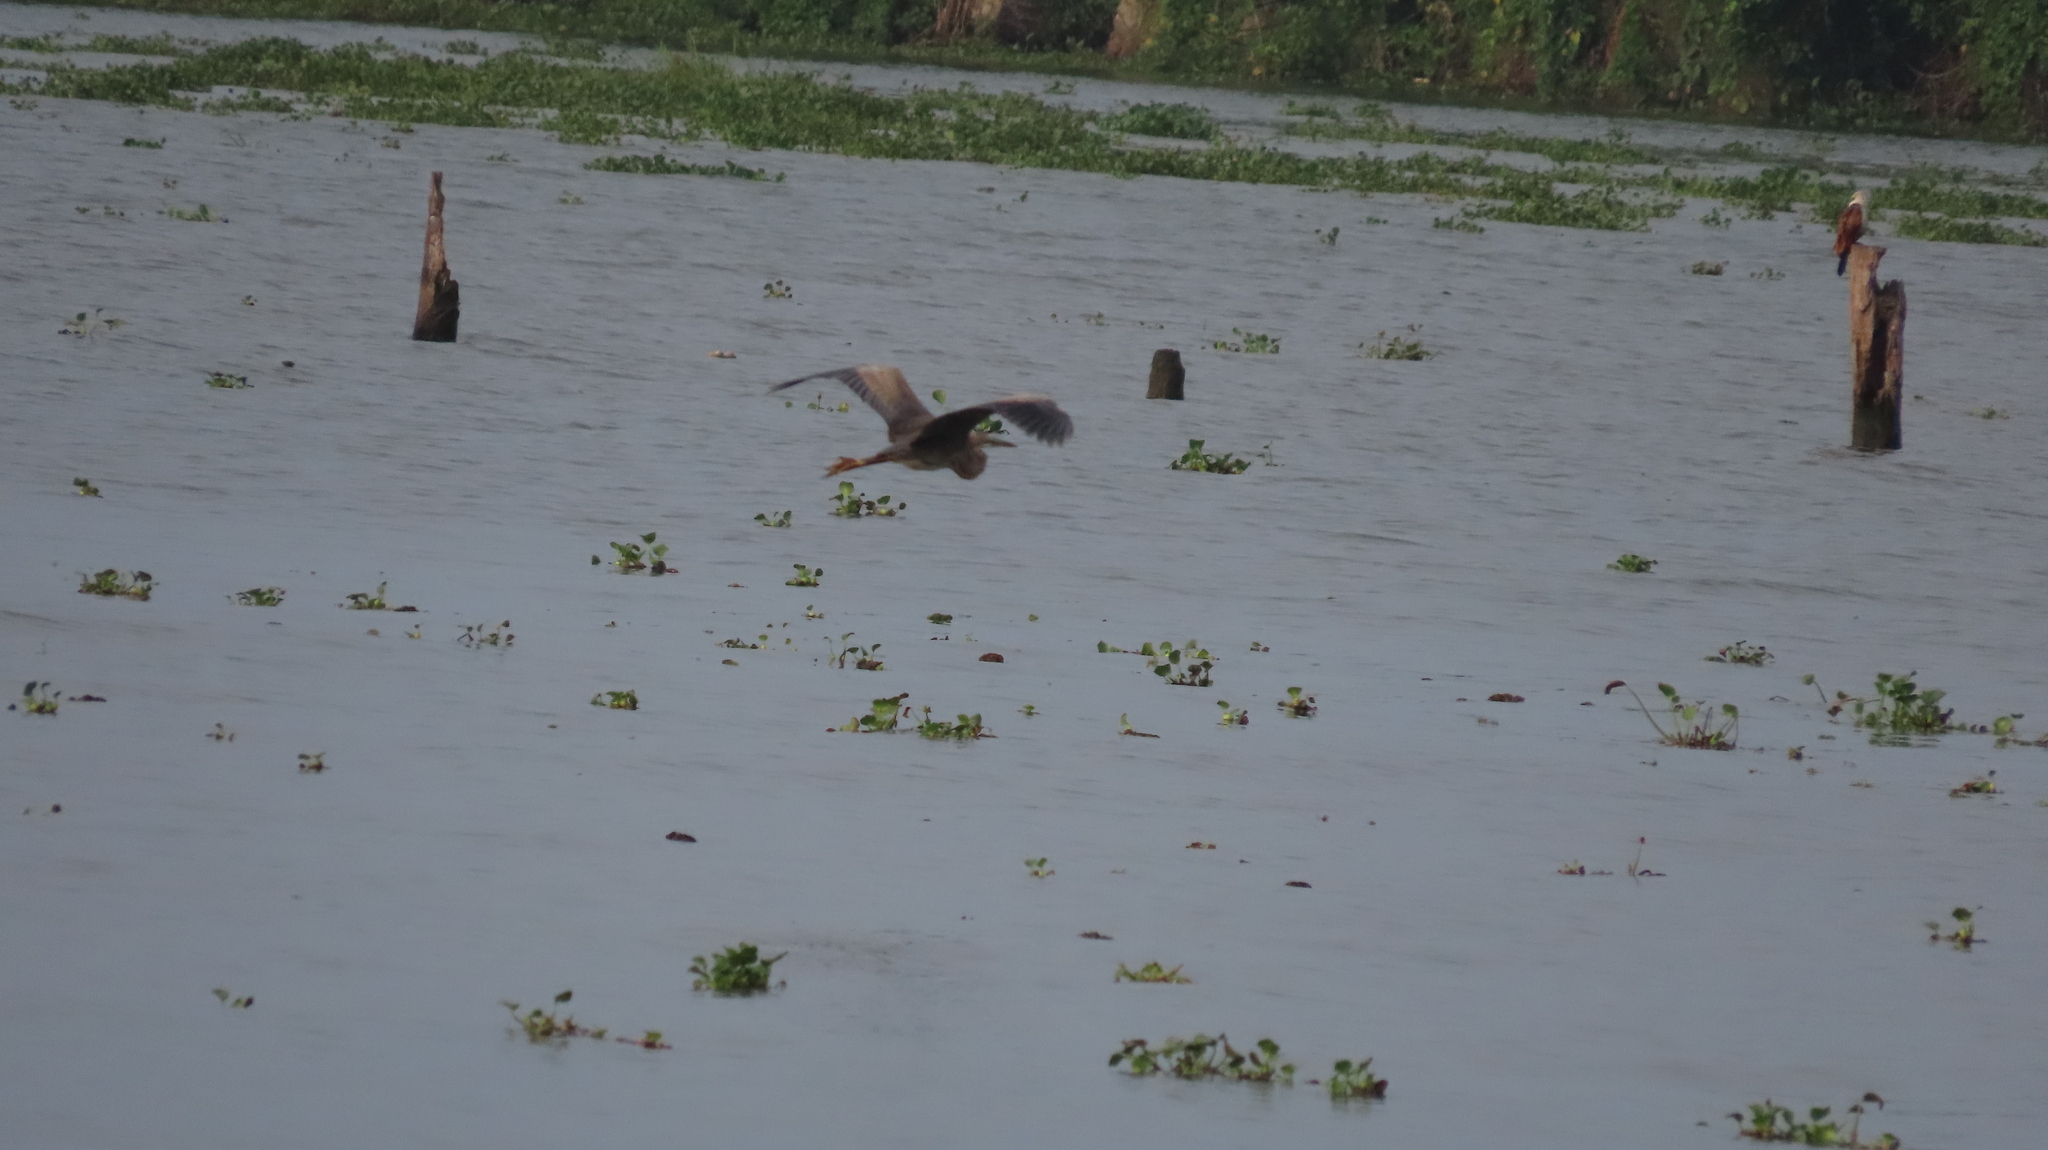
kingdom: Animalia
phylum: Chordata
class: Aves
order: Pelecaniformes
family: Ardeidae
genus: Ardea
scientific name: Ardea purpurea
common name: Purple heron
